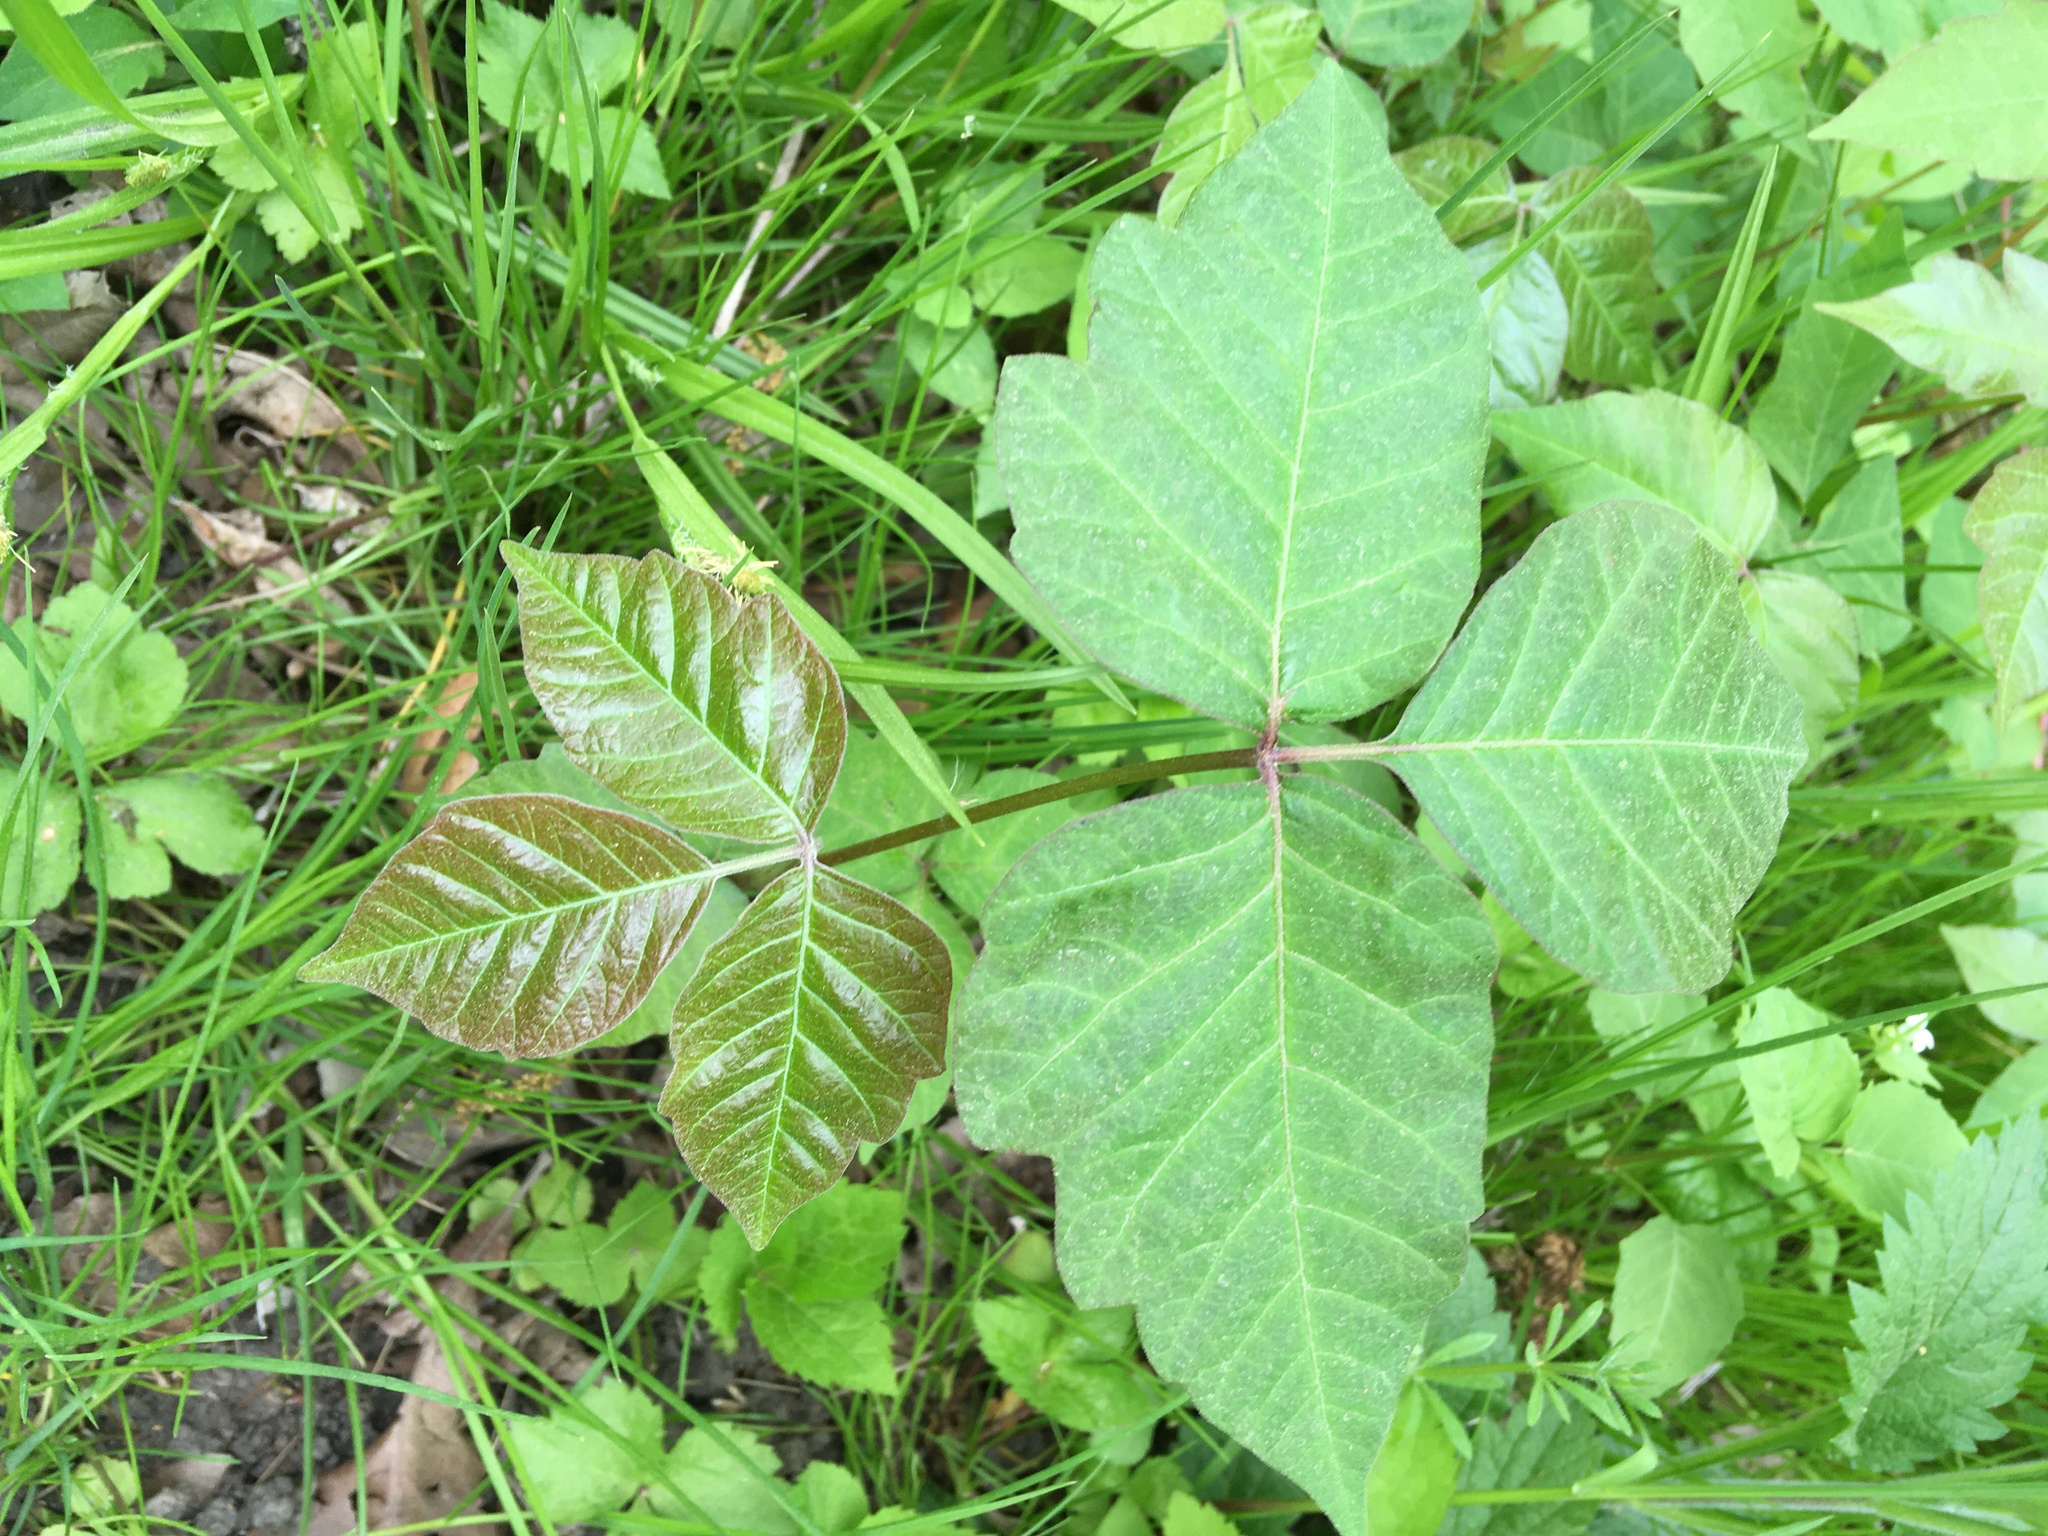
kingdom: Plantae
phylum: Tracheophyta
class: Magnoliopsida
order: Sapindales
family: Anacardiaceae
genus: Toxicodendron
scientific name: Toxicodendron radicans
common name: Poison ivy
